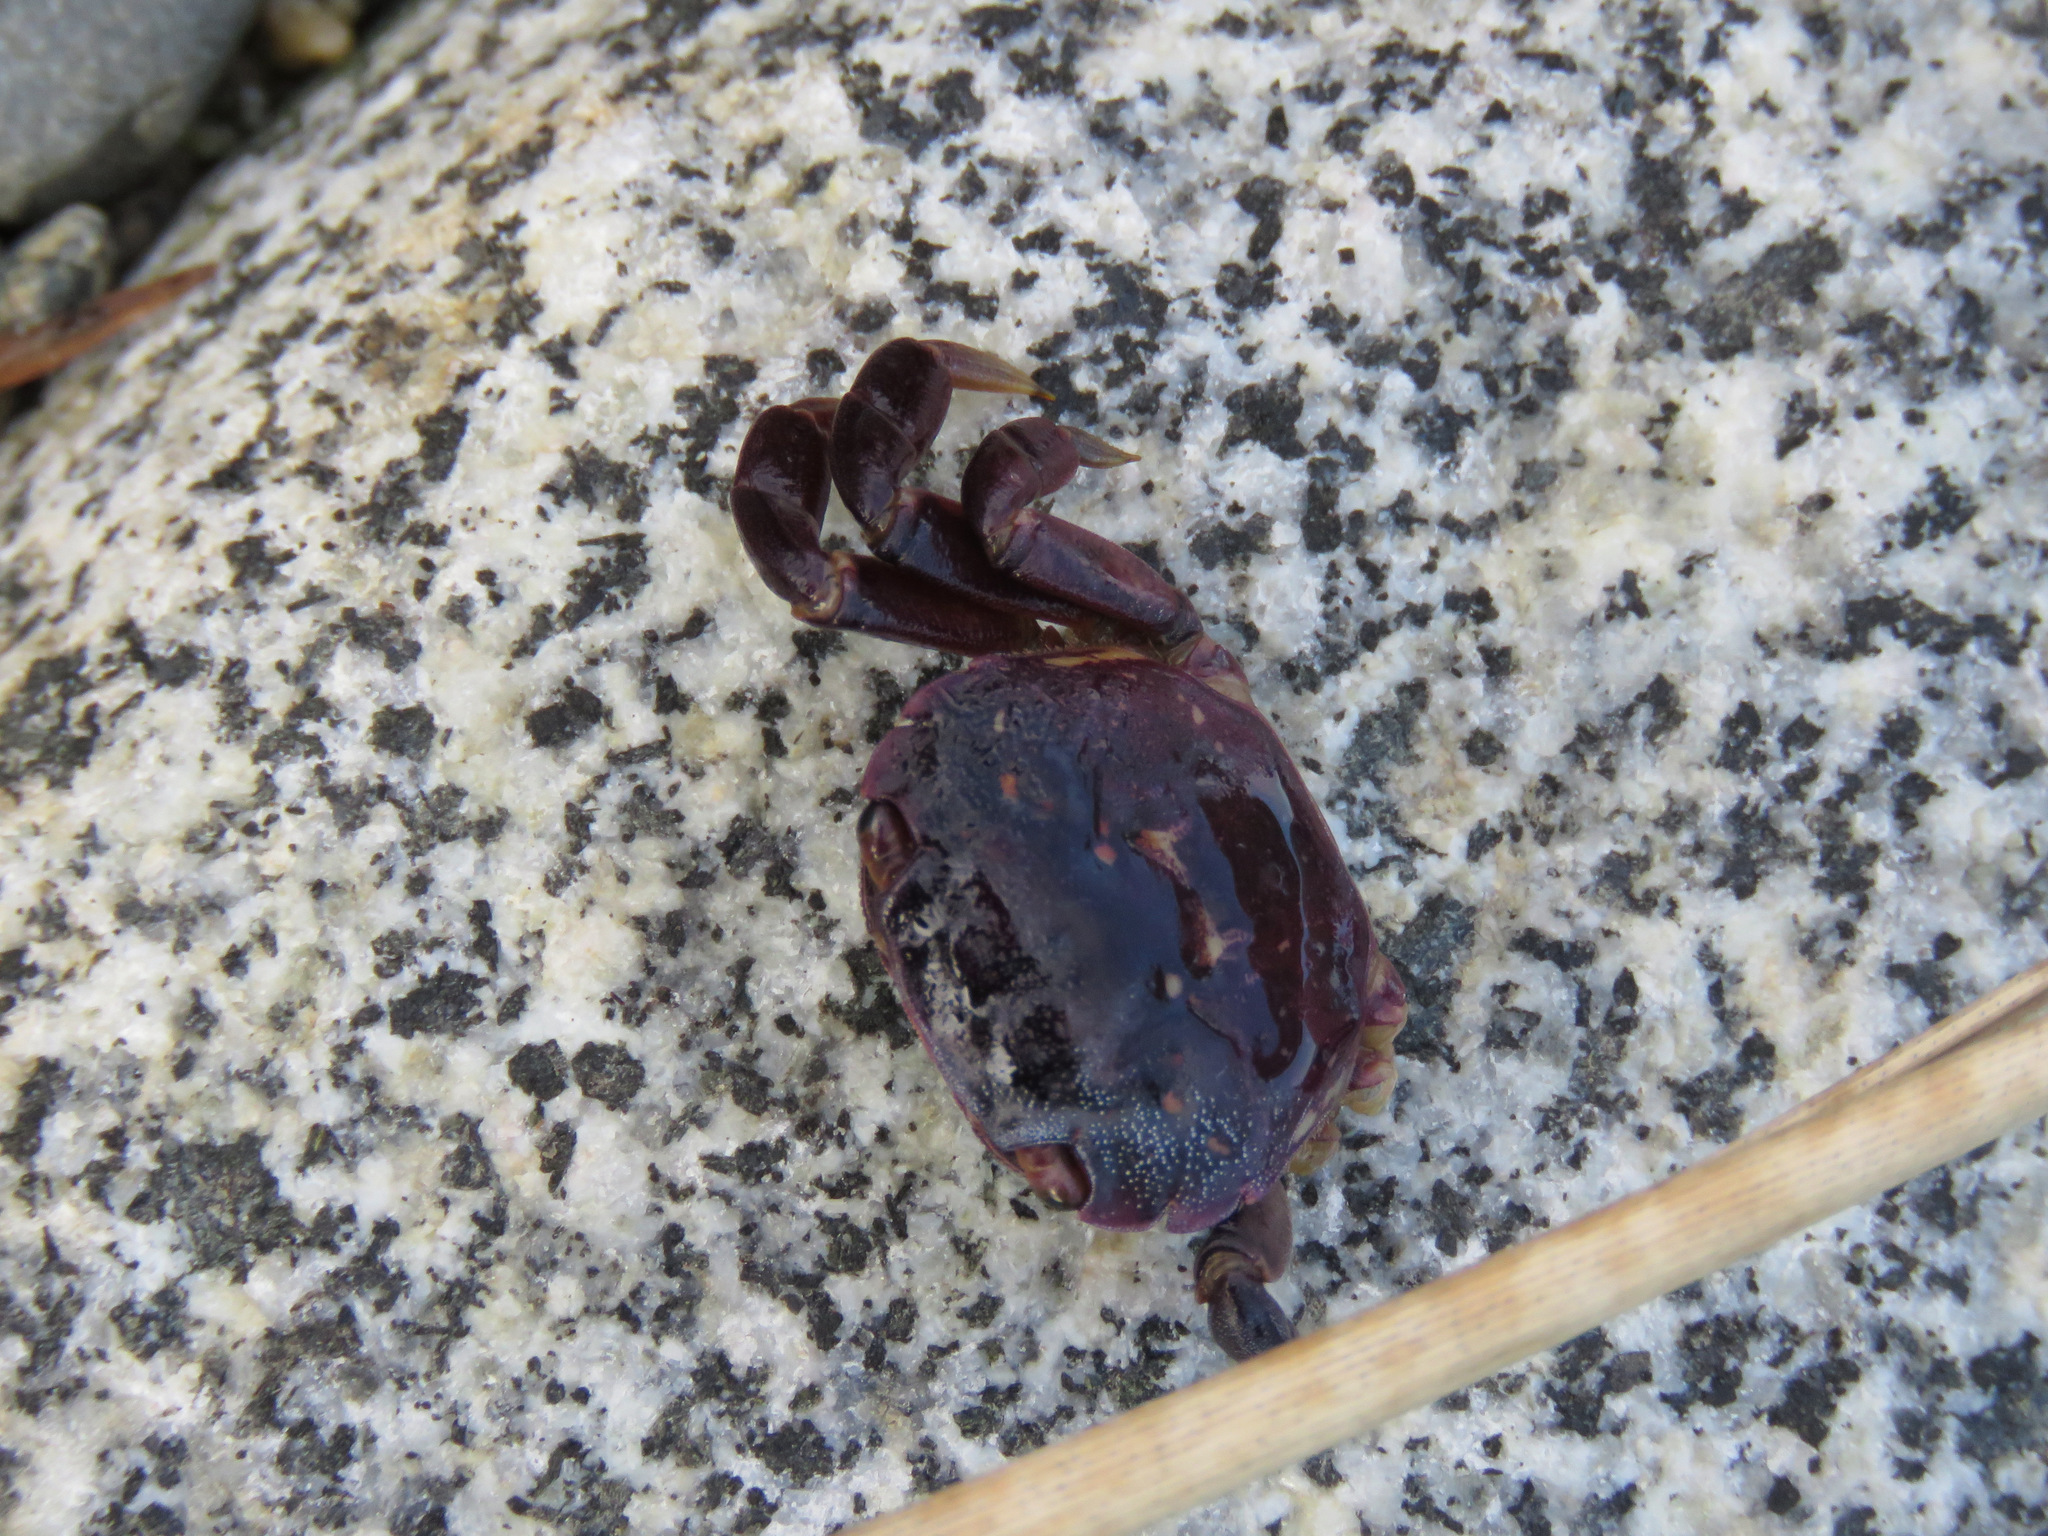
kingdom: Animalia
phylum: Arthropoda
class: Malacostraca
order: Decapoda
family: Varunidae
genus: Hemigrapsus
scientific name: Hemigrapsus nudus
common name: Purple shore crab
